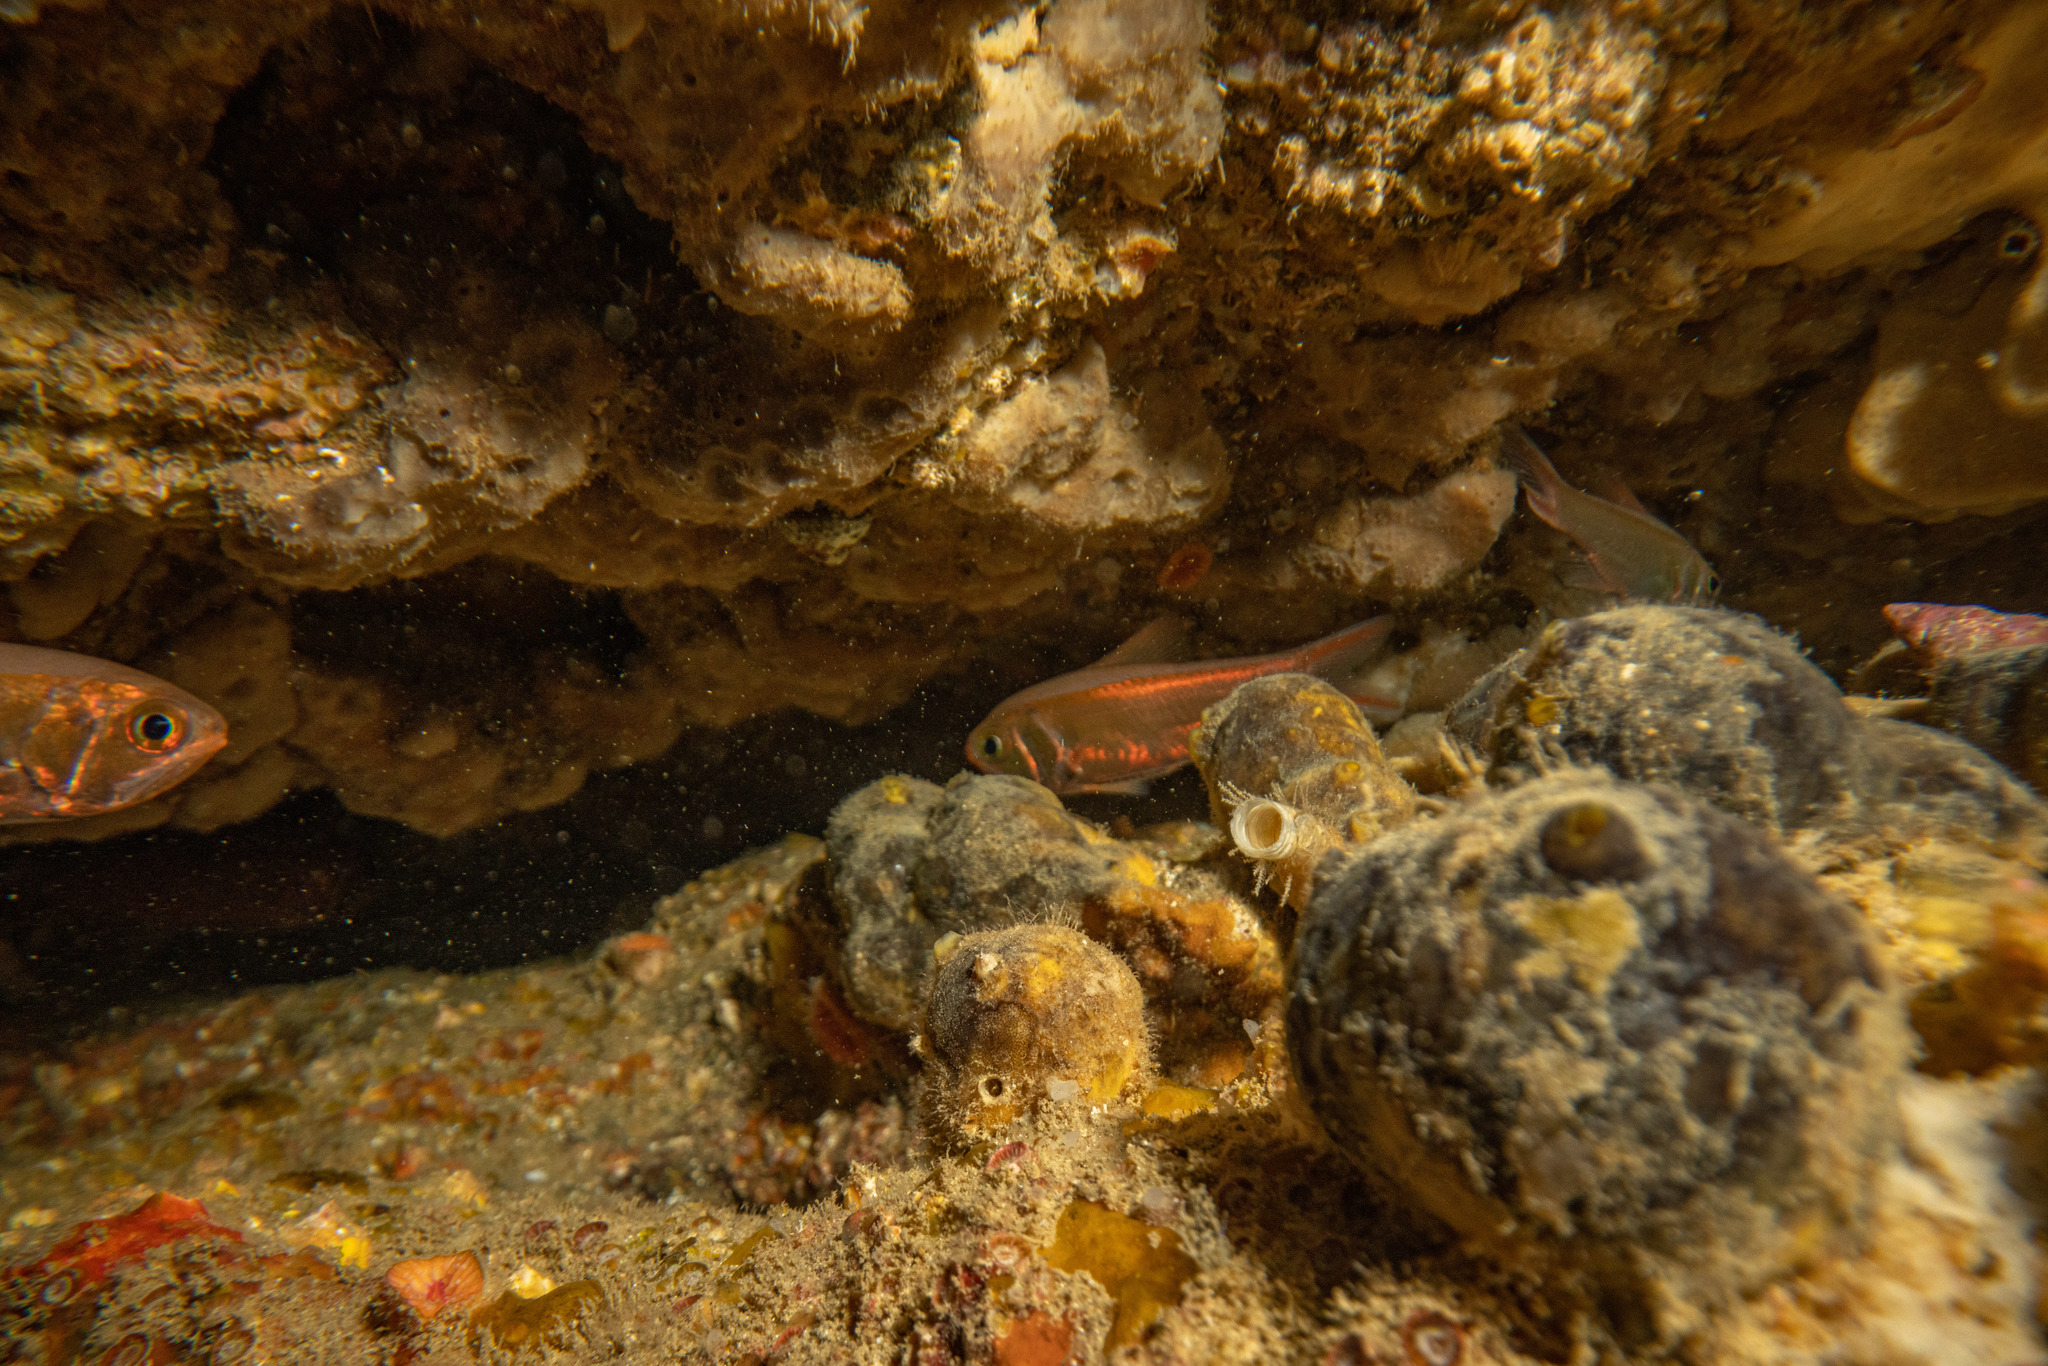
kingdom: Animalia
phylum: Chordata
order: Beryciformes
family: Trachichthyidae
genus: Optivus
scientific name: Optivus elongatus
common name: Slender roughy
